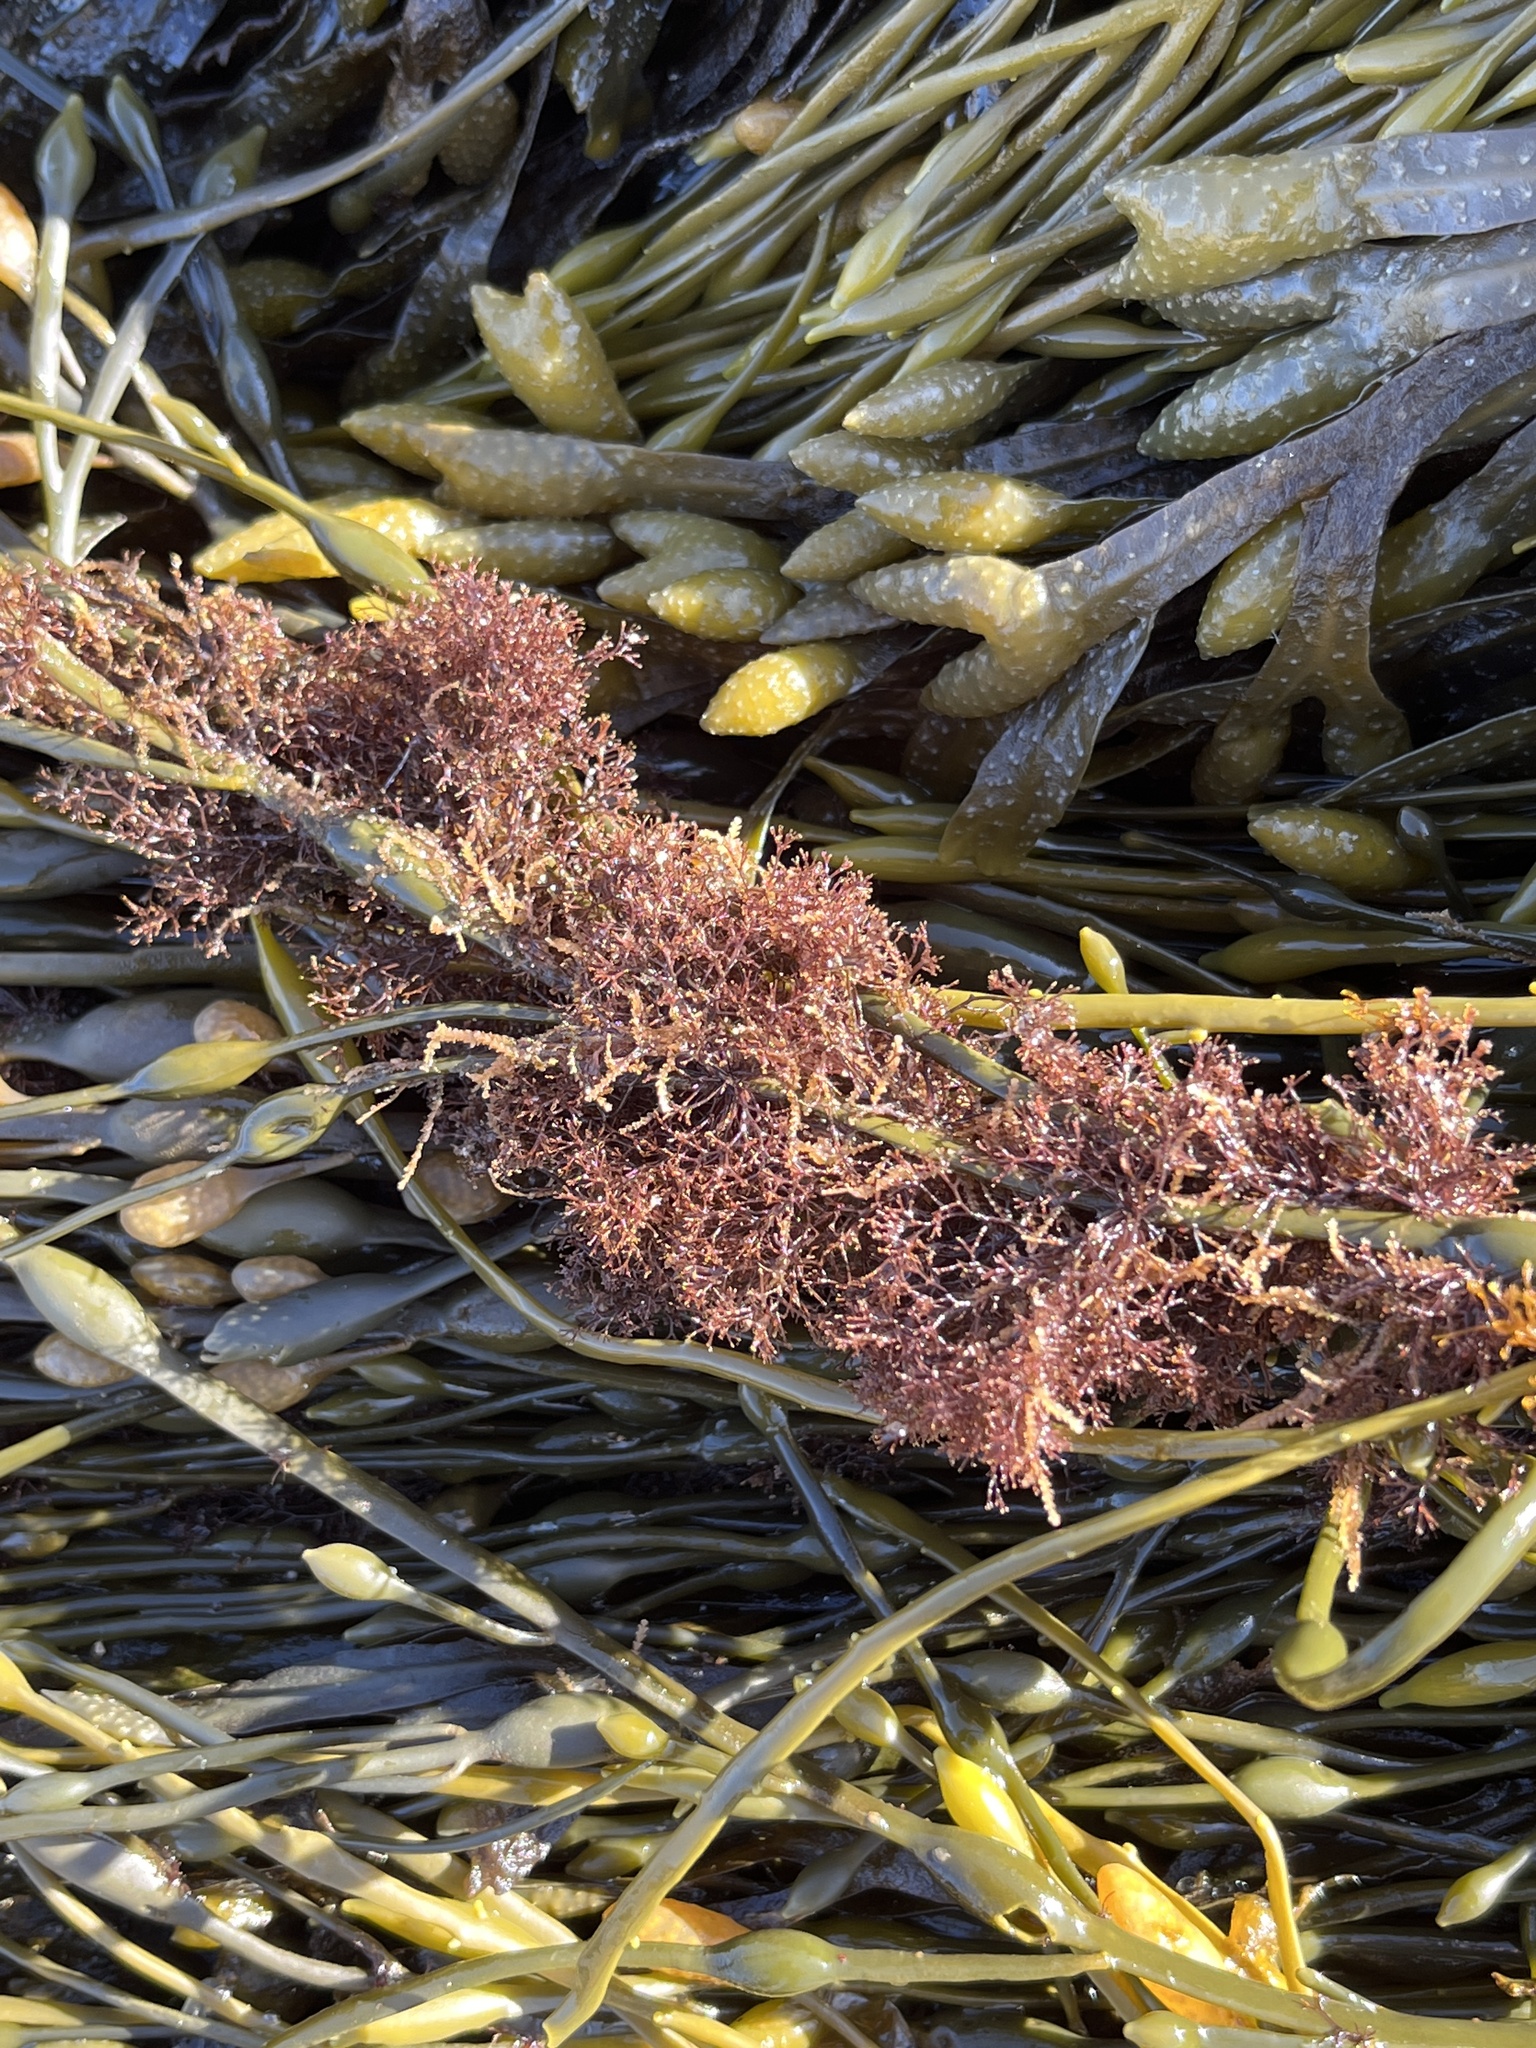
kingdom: Plantae
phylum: Rhodophyta
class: Florideophyceae
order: Ceramiales
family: Rhodomelaceae
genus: Vertebrata
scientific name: Vertebrata lanosa
